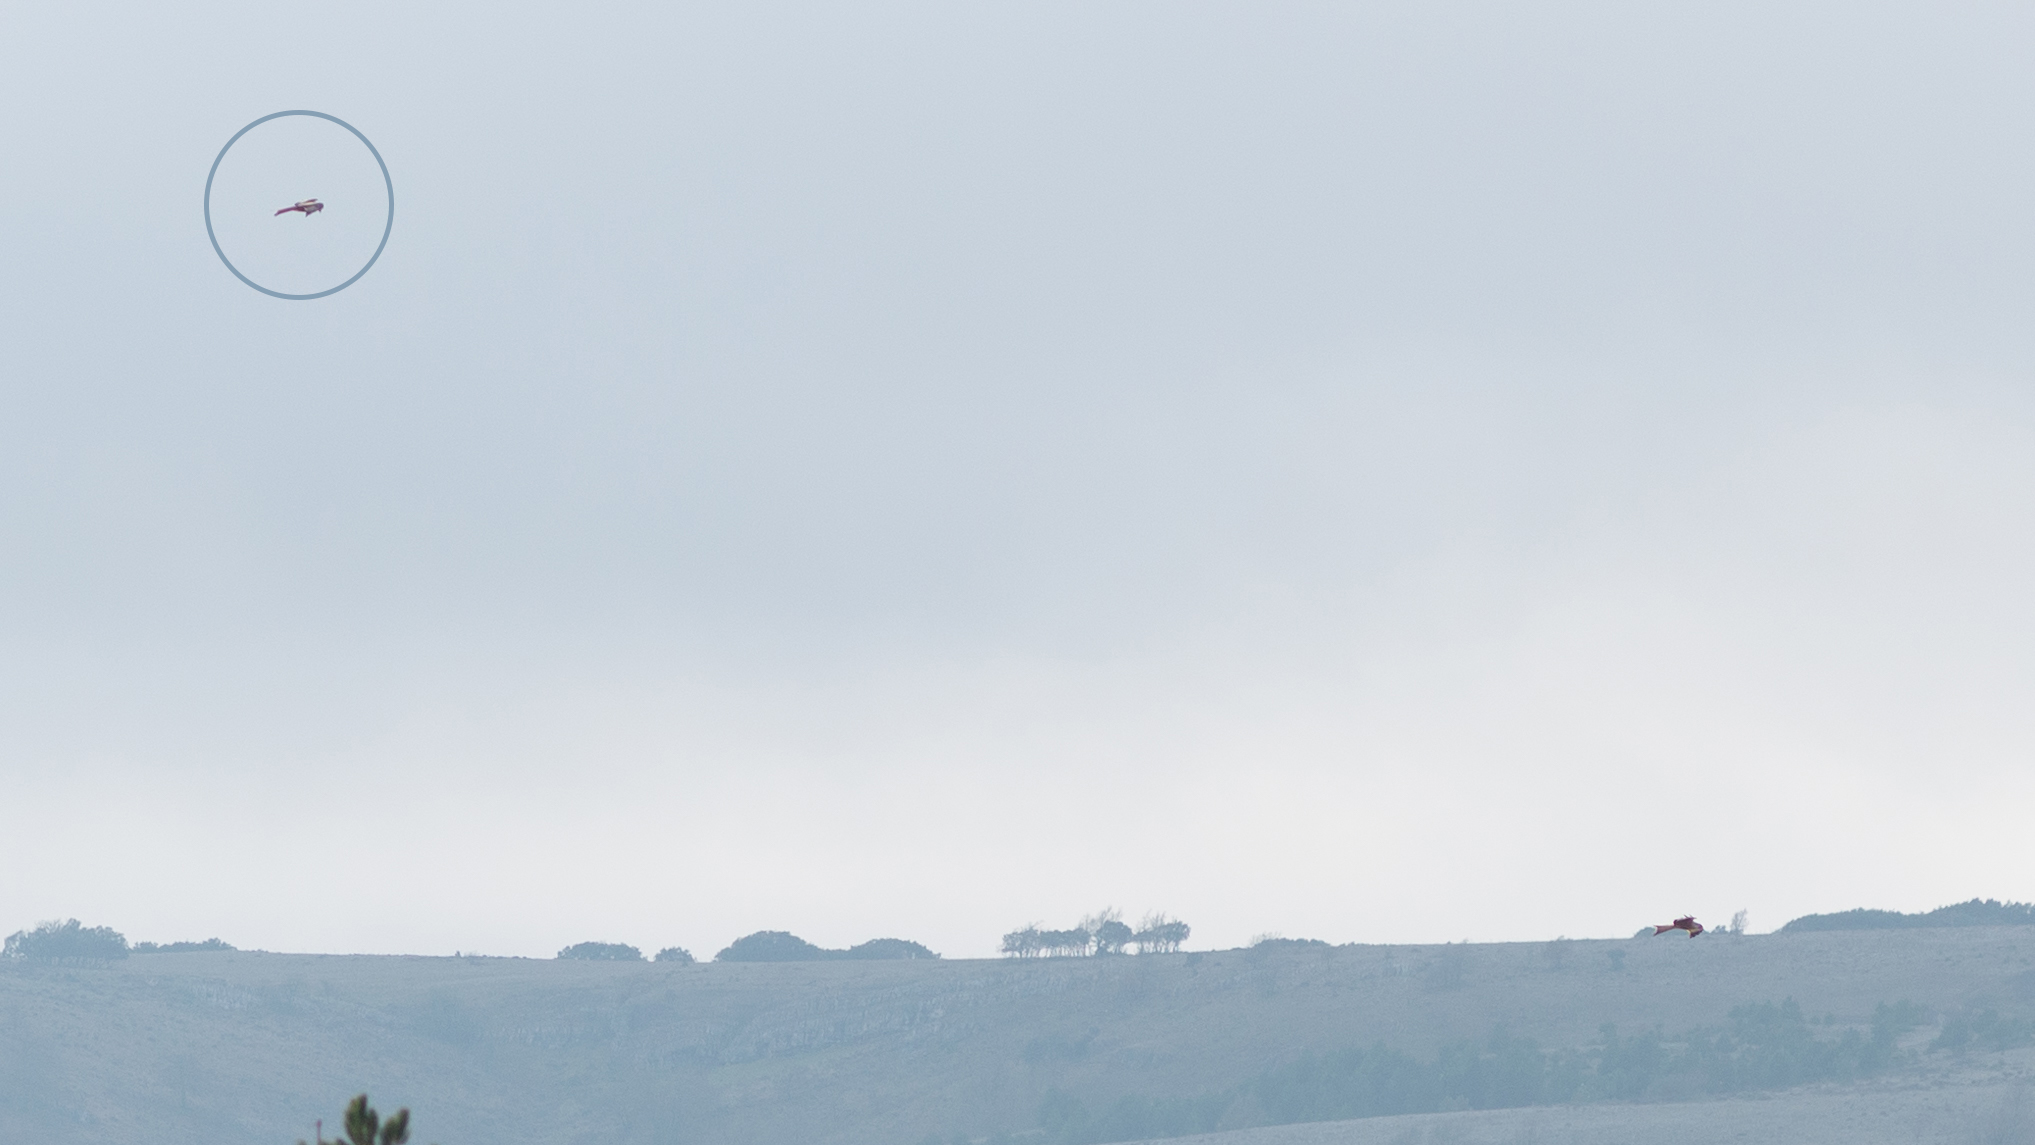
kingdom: Animalia
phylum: Chordata
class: Aves
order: Accipitriformes
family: Accipitridae
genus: Milvus
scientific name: Milvus milvus
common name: Red kite
